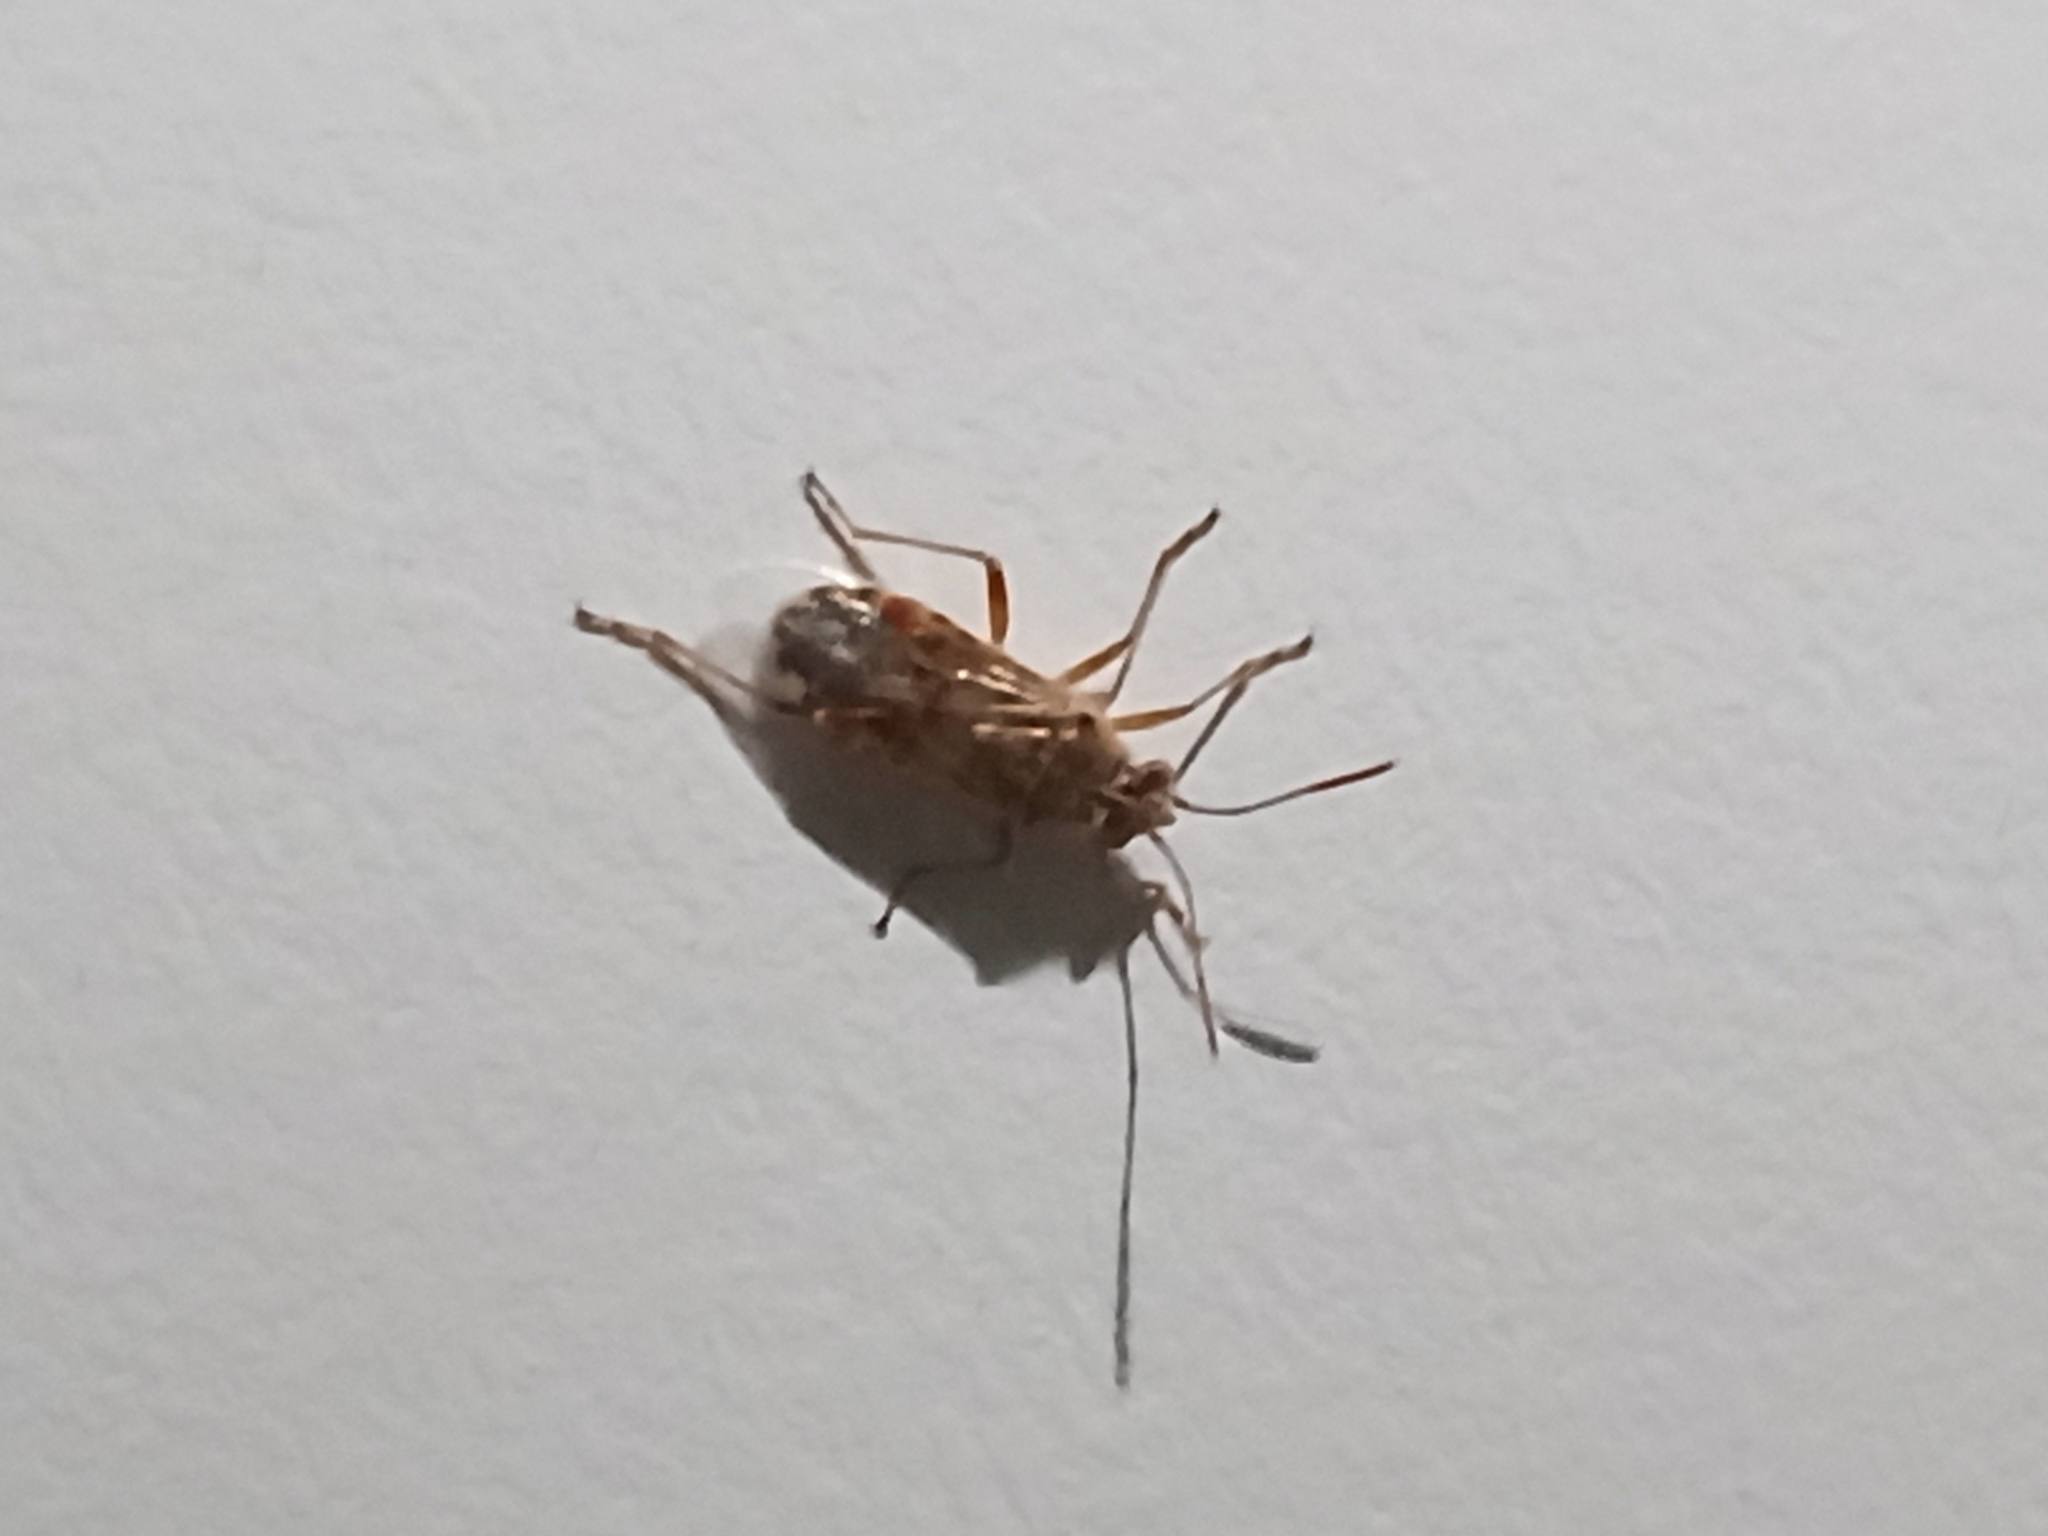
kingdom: Animalia
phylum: Arthropoda
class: Insecta
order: Hemiptera
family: Rhopalidae
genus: Liorhyssus
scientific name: Liorhyssus hyalinus
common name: Scentless plant bug
